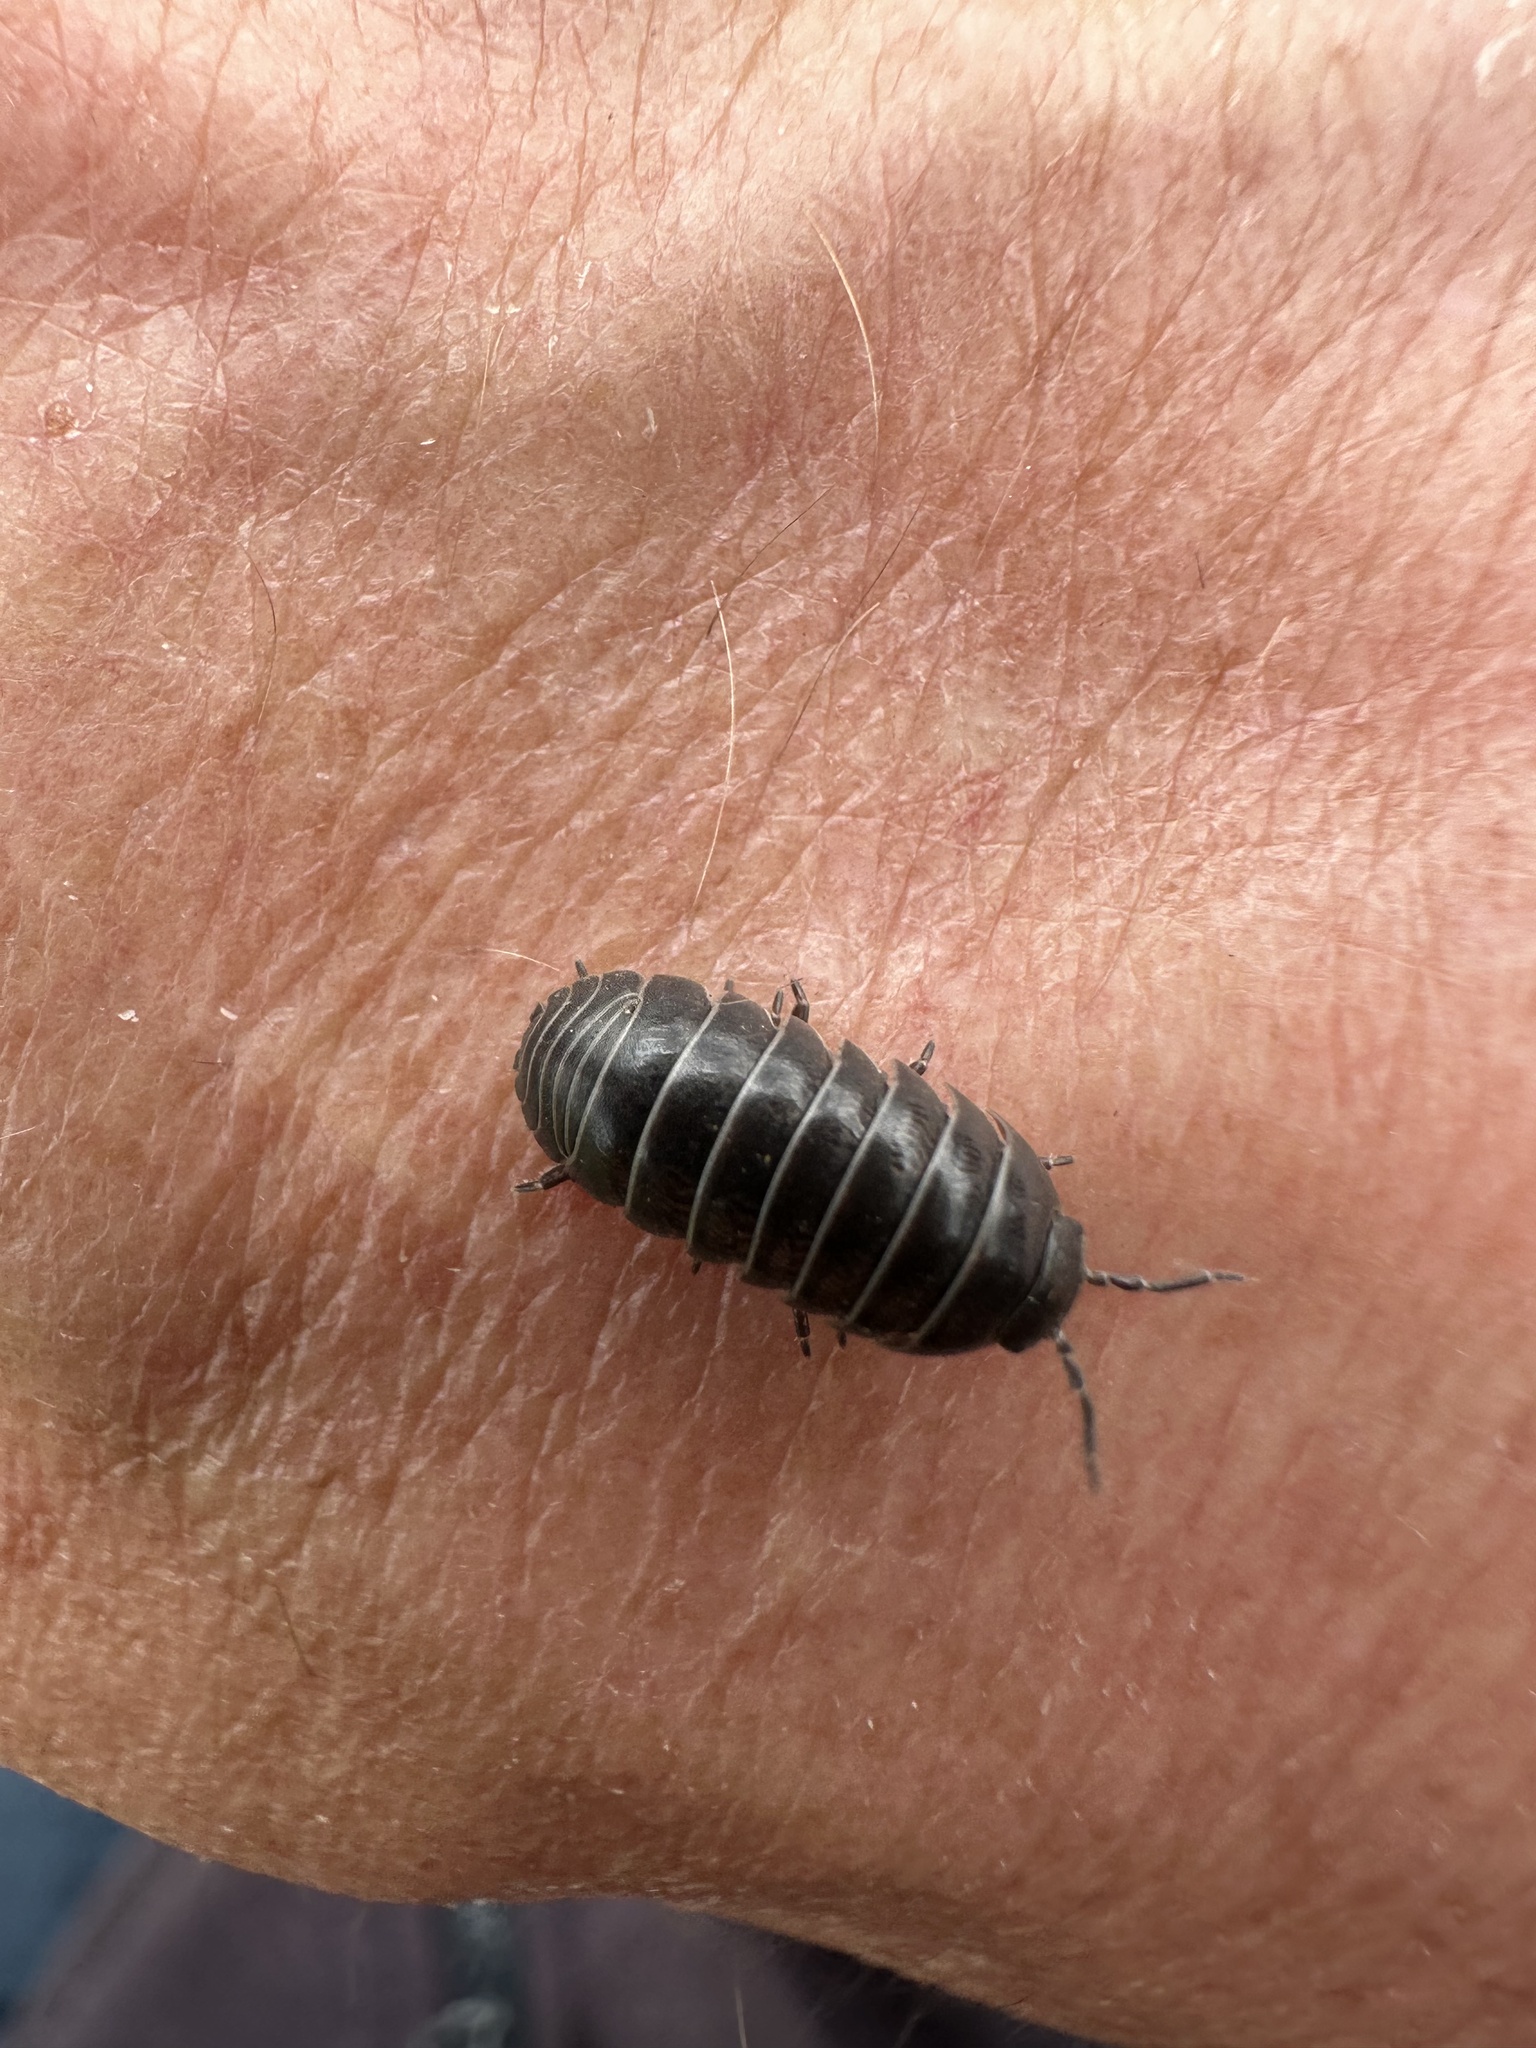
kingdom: Animalia
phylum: Arthropoda
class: Malacostraca
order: Isopoda
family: Armadillidiidae
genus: Armadillidium
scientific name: Armadillidium vulgare
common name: Common pill woodlouse
